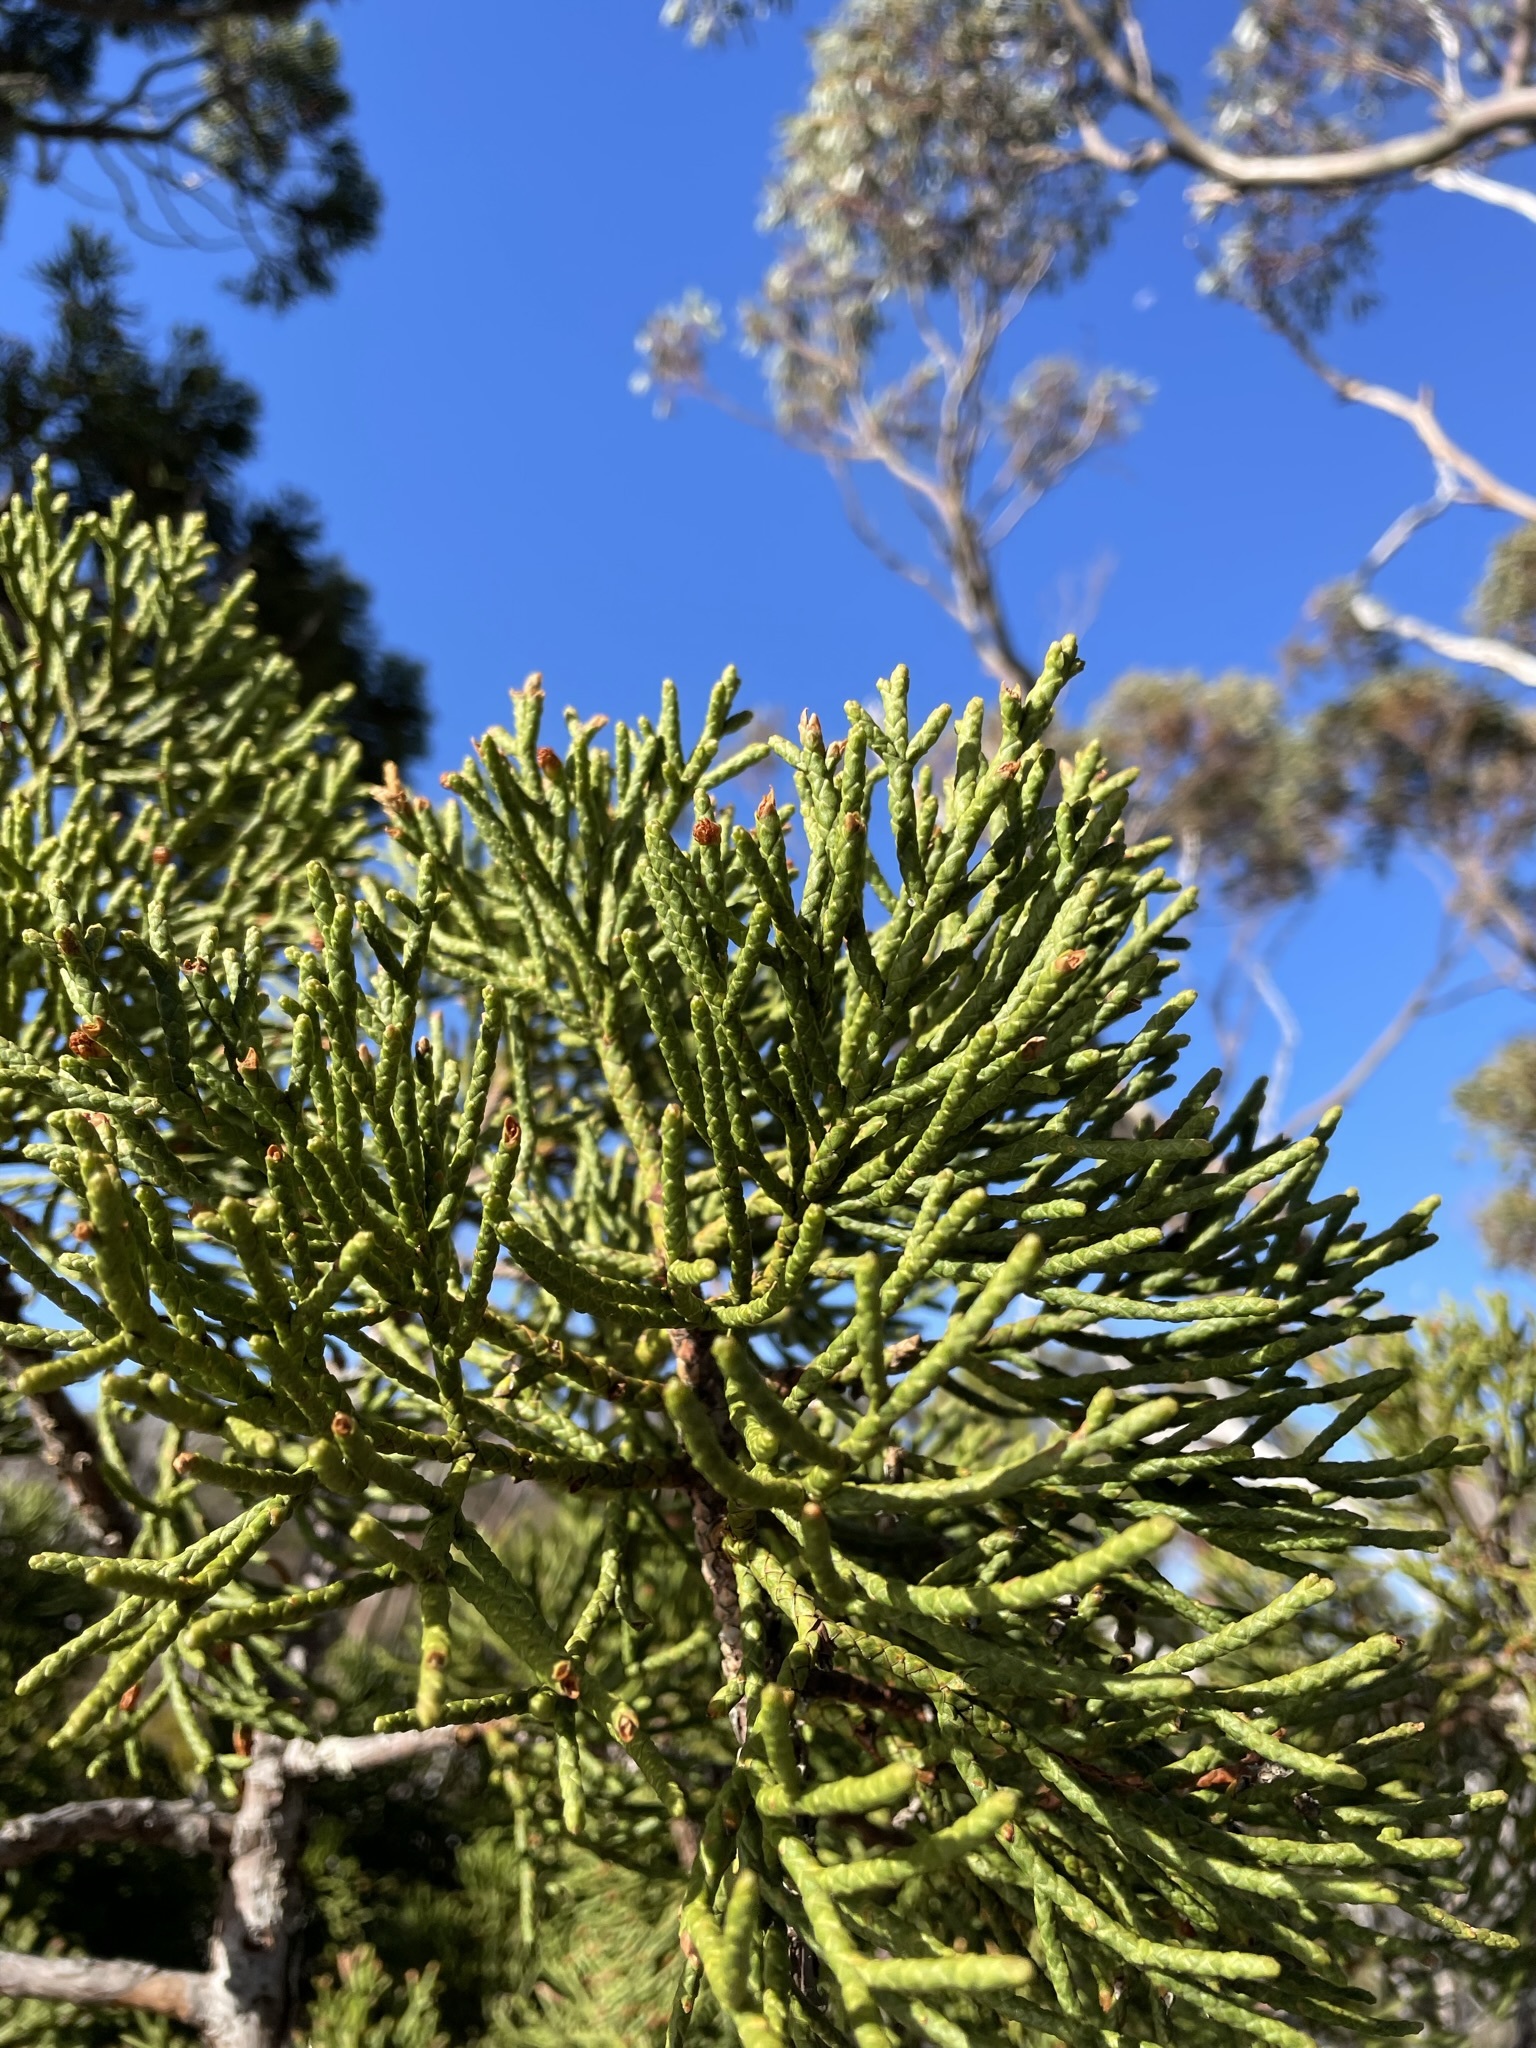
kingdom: Plantae
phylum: Tracheophyta
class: Pinopsida
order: Pinales
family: Cupressaceae
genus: Athrotaxis
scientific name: Athrotaxis cupressoides
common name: Tasmanian pencil pine
